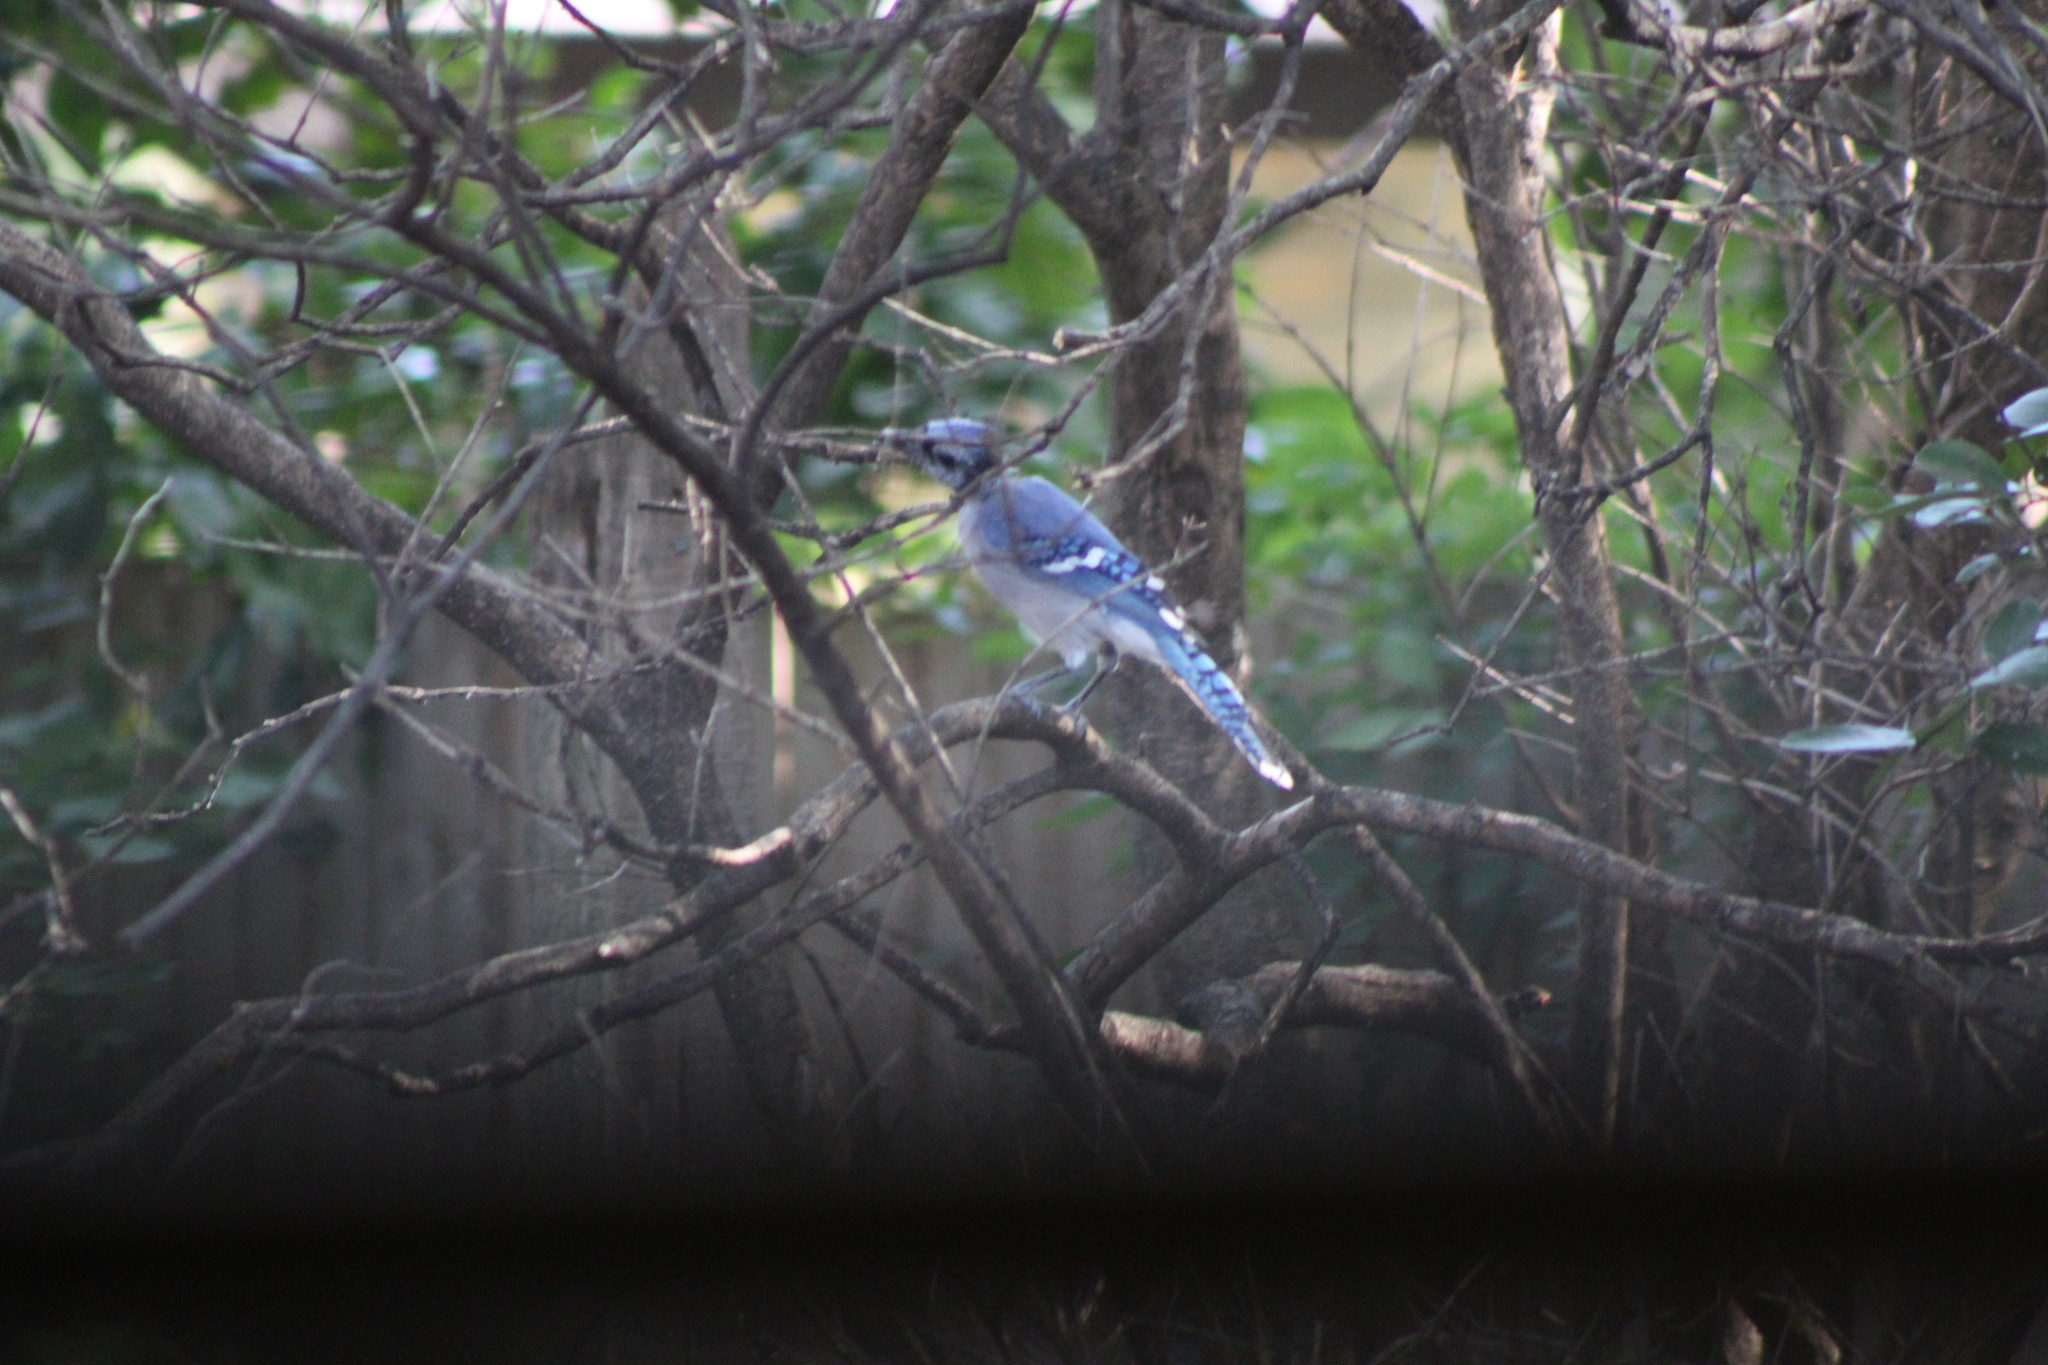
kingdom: Animalia
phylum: Chordata
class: Aves
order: Passeriformes
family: Corvidae
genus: Cyanocitta
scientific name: Cyanocitta cristata
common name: Blue jay
